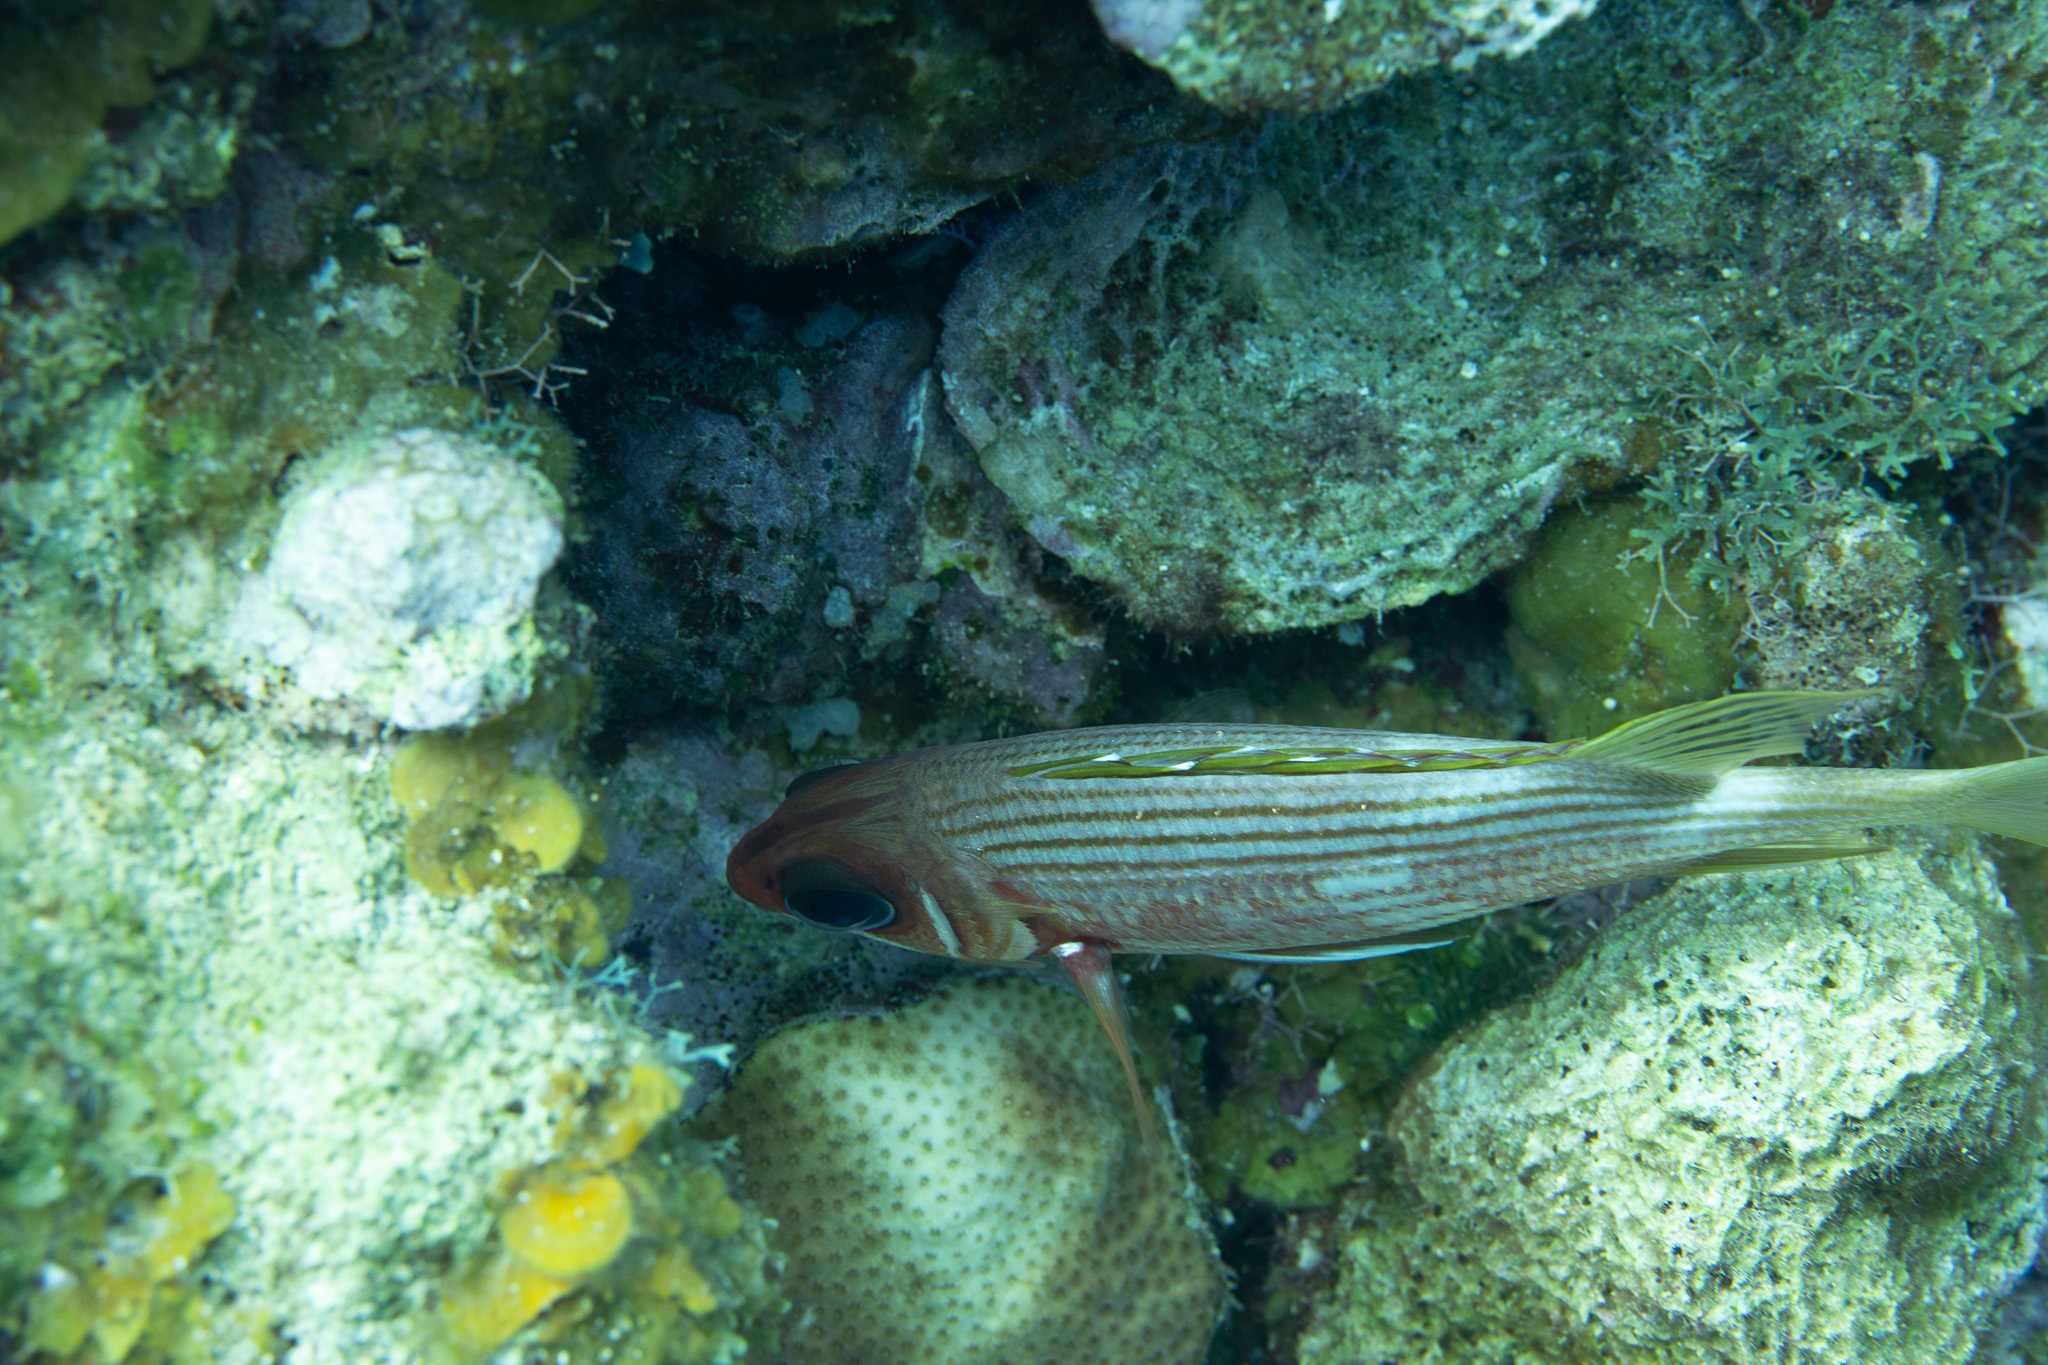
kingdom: Animalia
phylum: Chordata
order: Beryciformes
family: Holocentridae
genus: Holocentrus
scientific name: Holocentrus rufus
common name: Longspine squirrelfish
